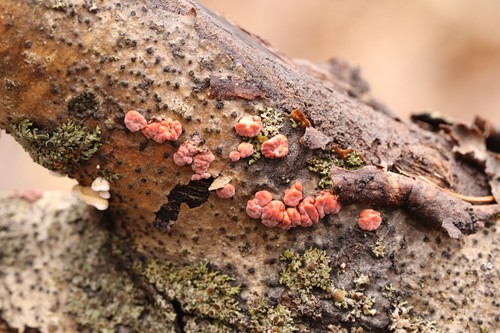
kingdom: Fungi
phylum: Basidiomycota
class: Agaricomycetes
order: Russulales
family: Peniophoraceae
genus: Peniophora
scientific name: Peniophora rufa
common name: Red tree brain fungus
